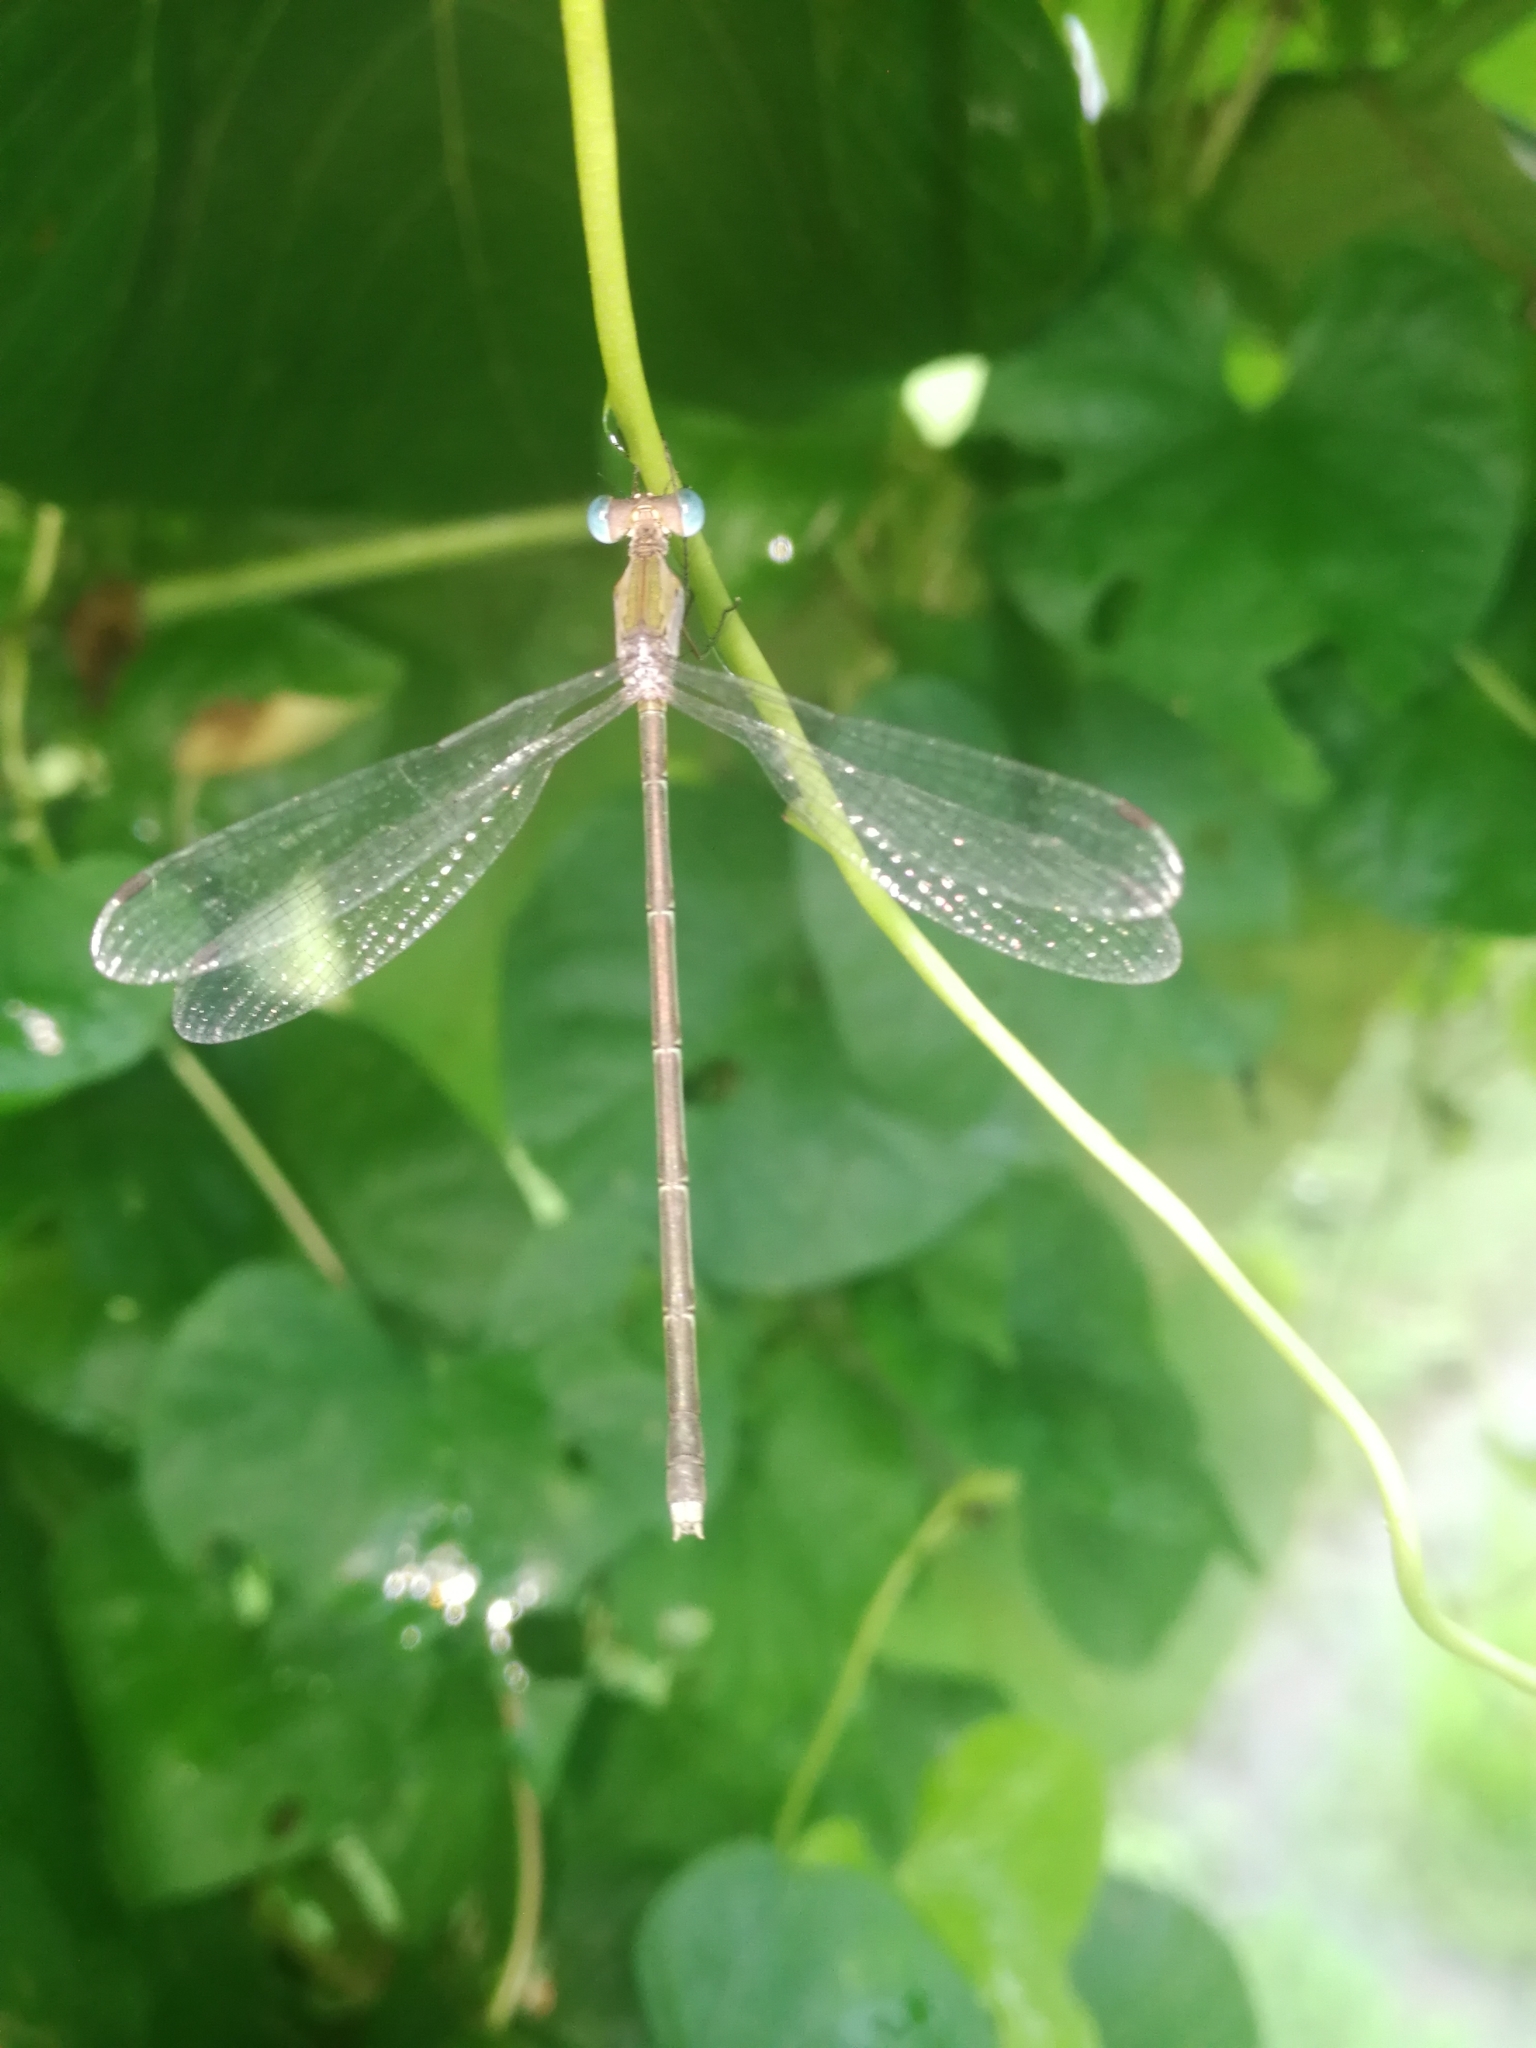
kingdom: Animalia
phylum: Arthropoda
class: Insecta
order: Odonata
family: Lestidae
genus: Lestes
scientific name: Lestes elatus
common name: Emerald spreadwing
